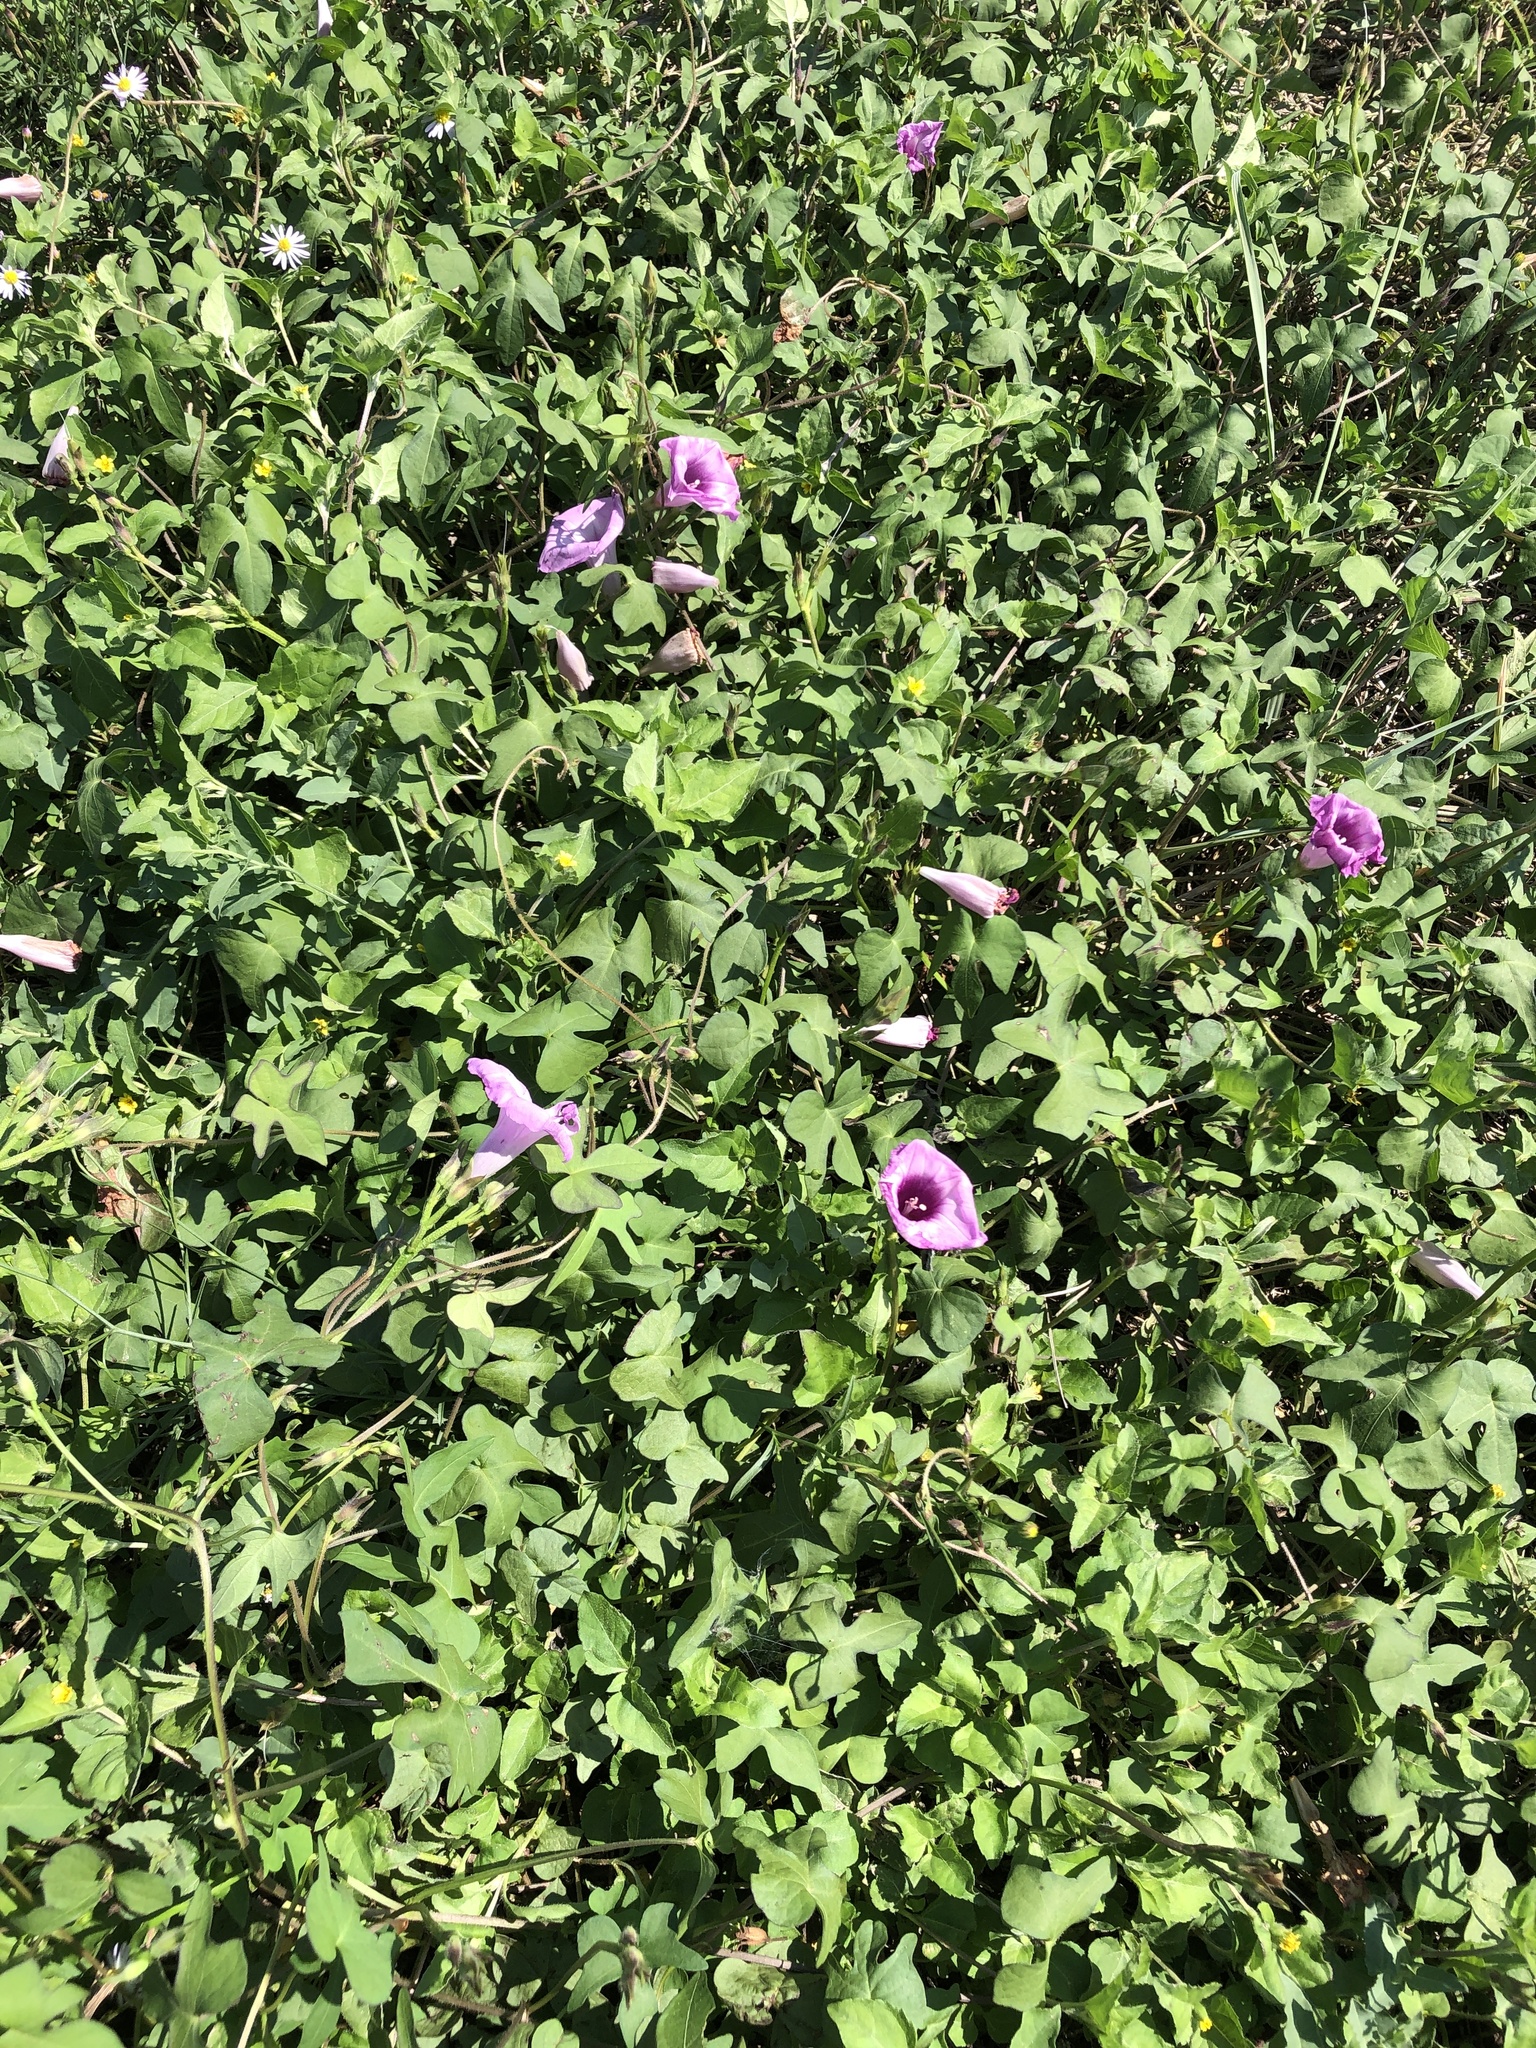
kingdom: Plantae
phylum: Tracheophyta
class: Magnoliopsida
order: Solanales
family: Convolvulaceae
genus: Ipomoea
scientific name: Ipomoea cordatotriloba
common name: Cotton morning glory
